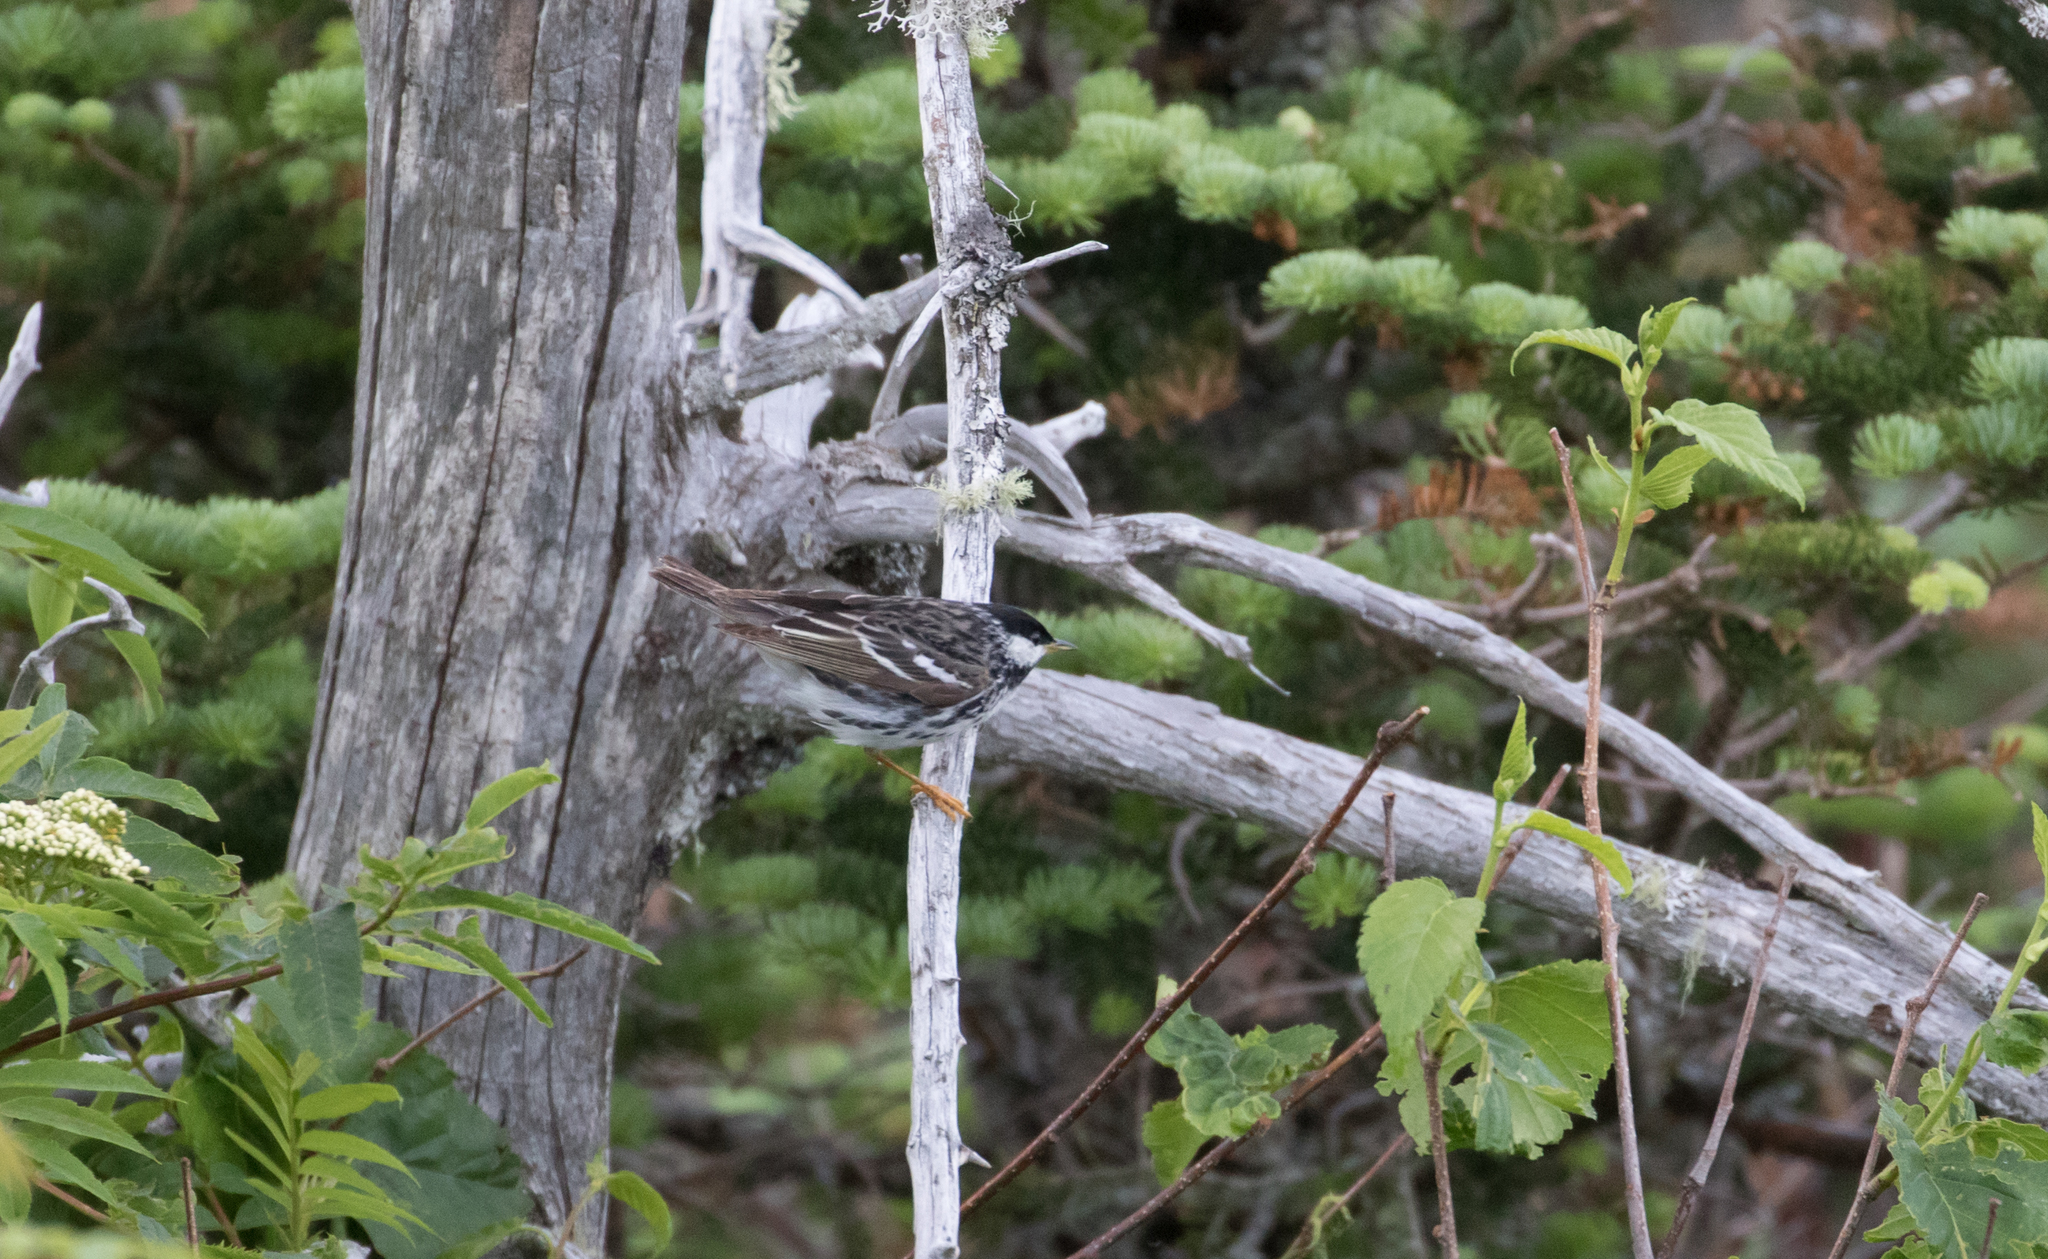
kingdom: Animalia
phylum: Chordata
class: Aves
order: Passeriformes
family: Parulidae
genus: Setophaga
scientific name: Setophaga striata
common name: Blackpoll warbler
